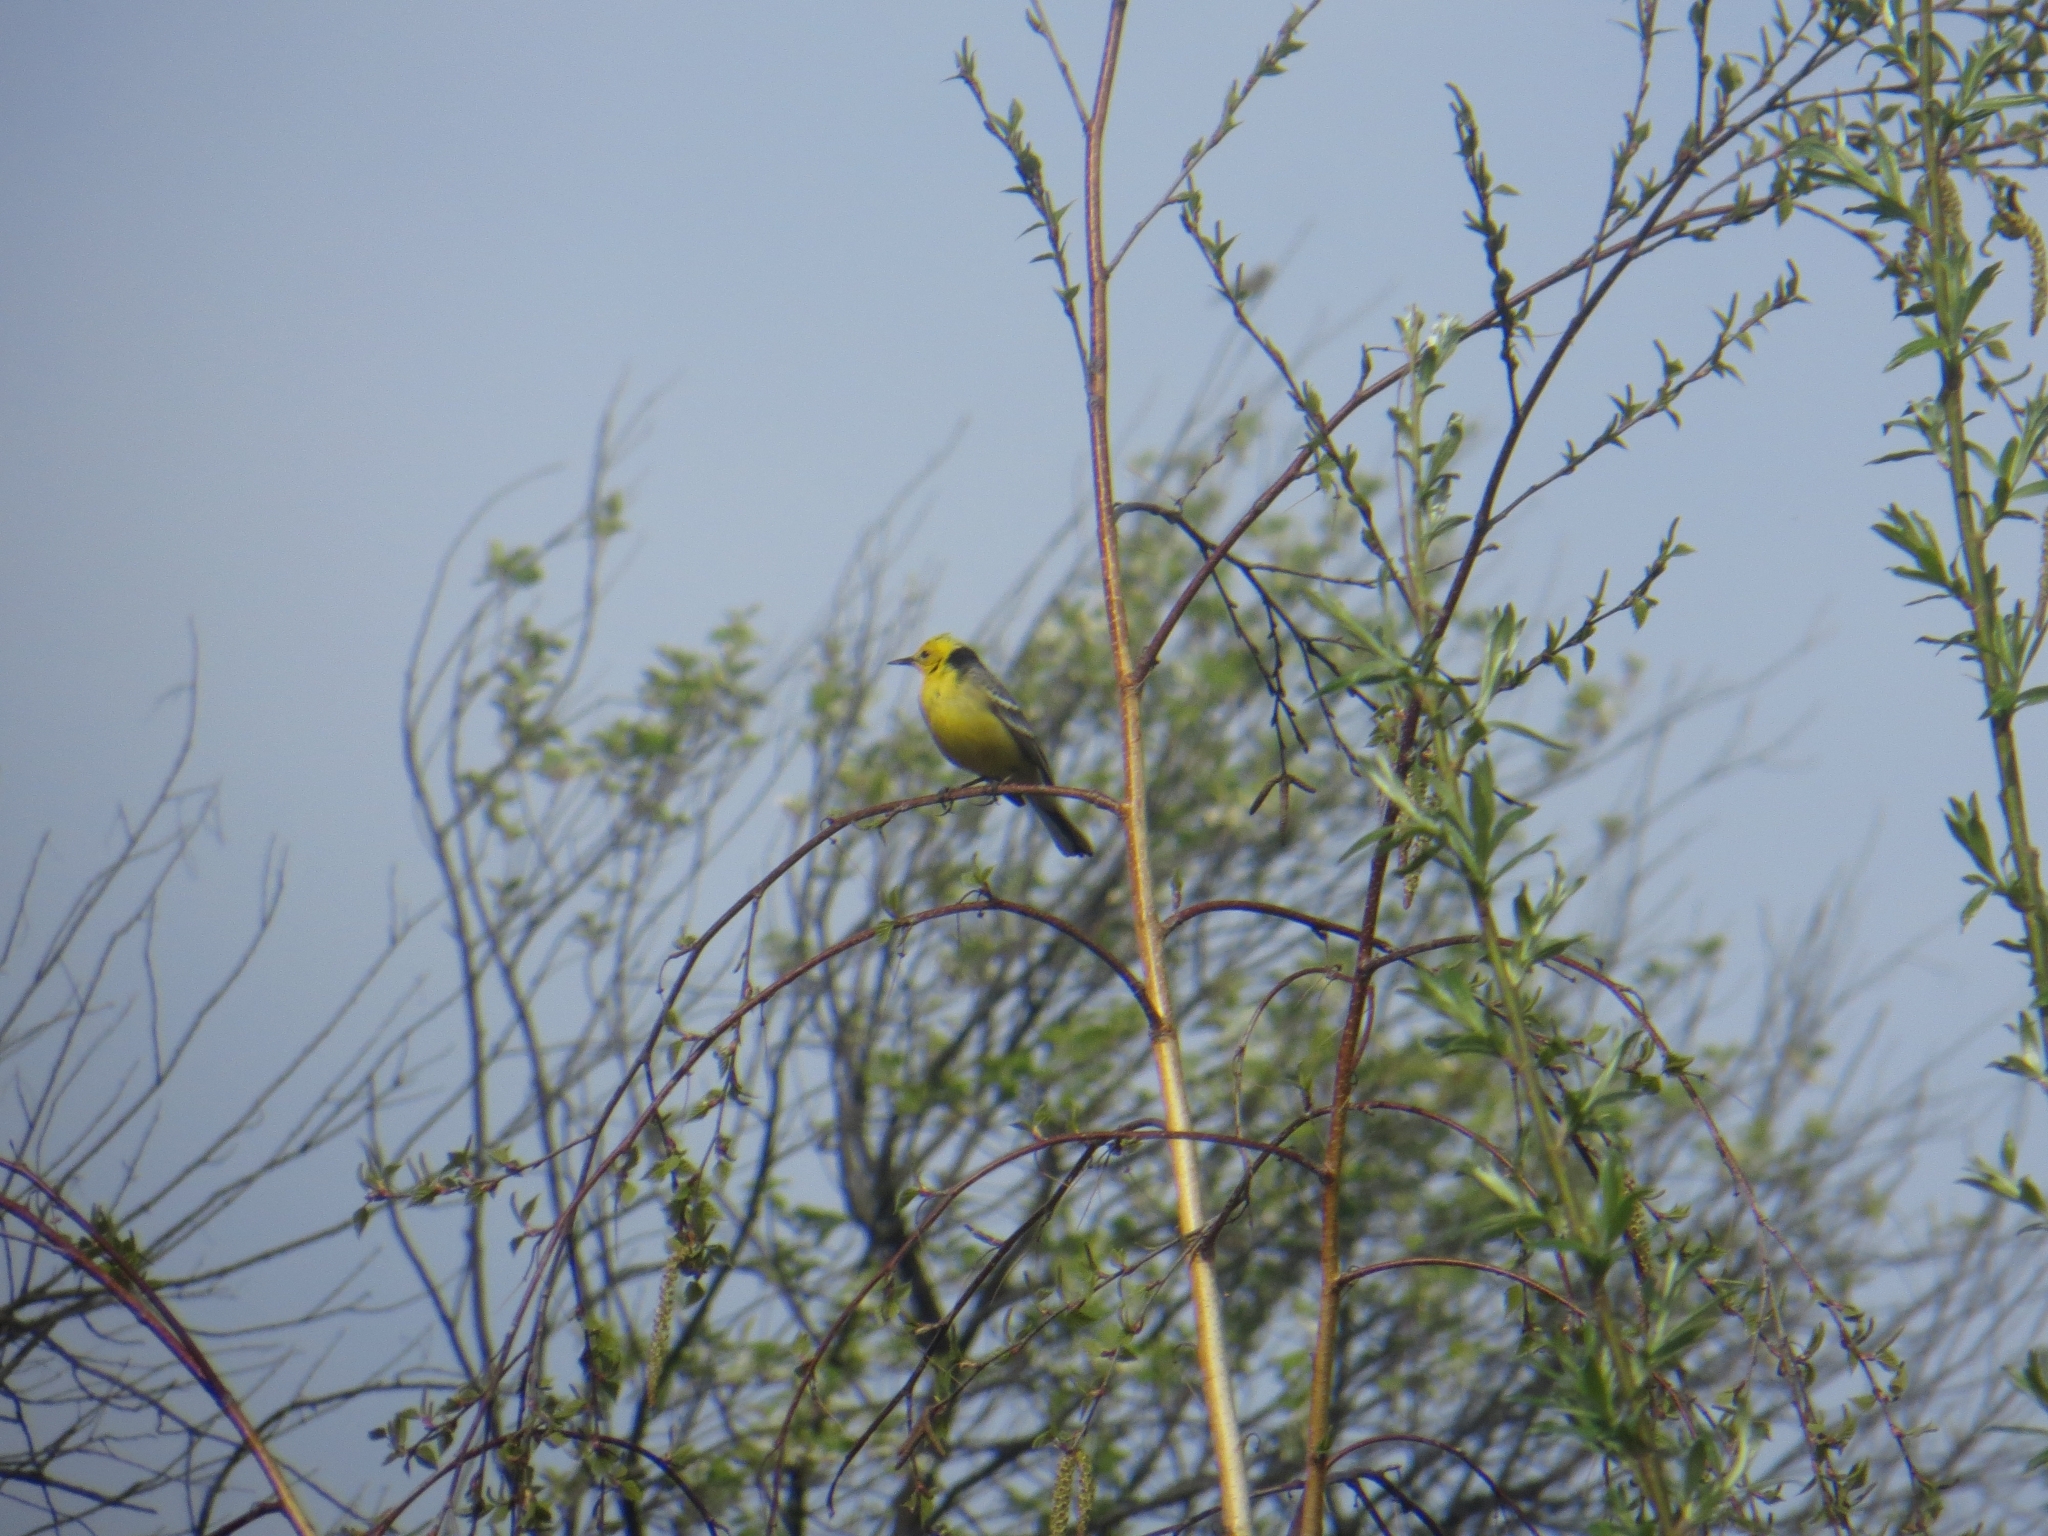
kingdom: Animalia
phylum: Chordata
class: Aves
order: Passeriformes
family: Motacillidae
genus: Motacilla
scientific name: Motacilla citreola
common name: Citrine wagtail
